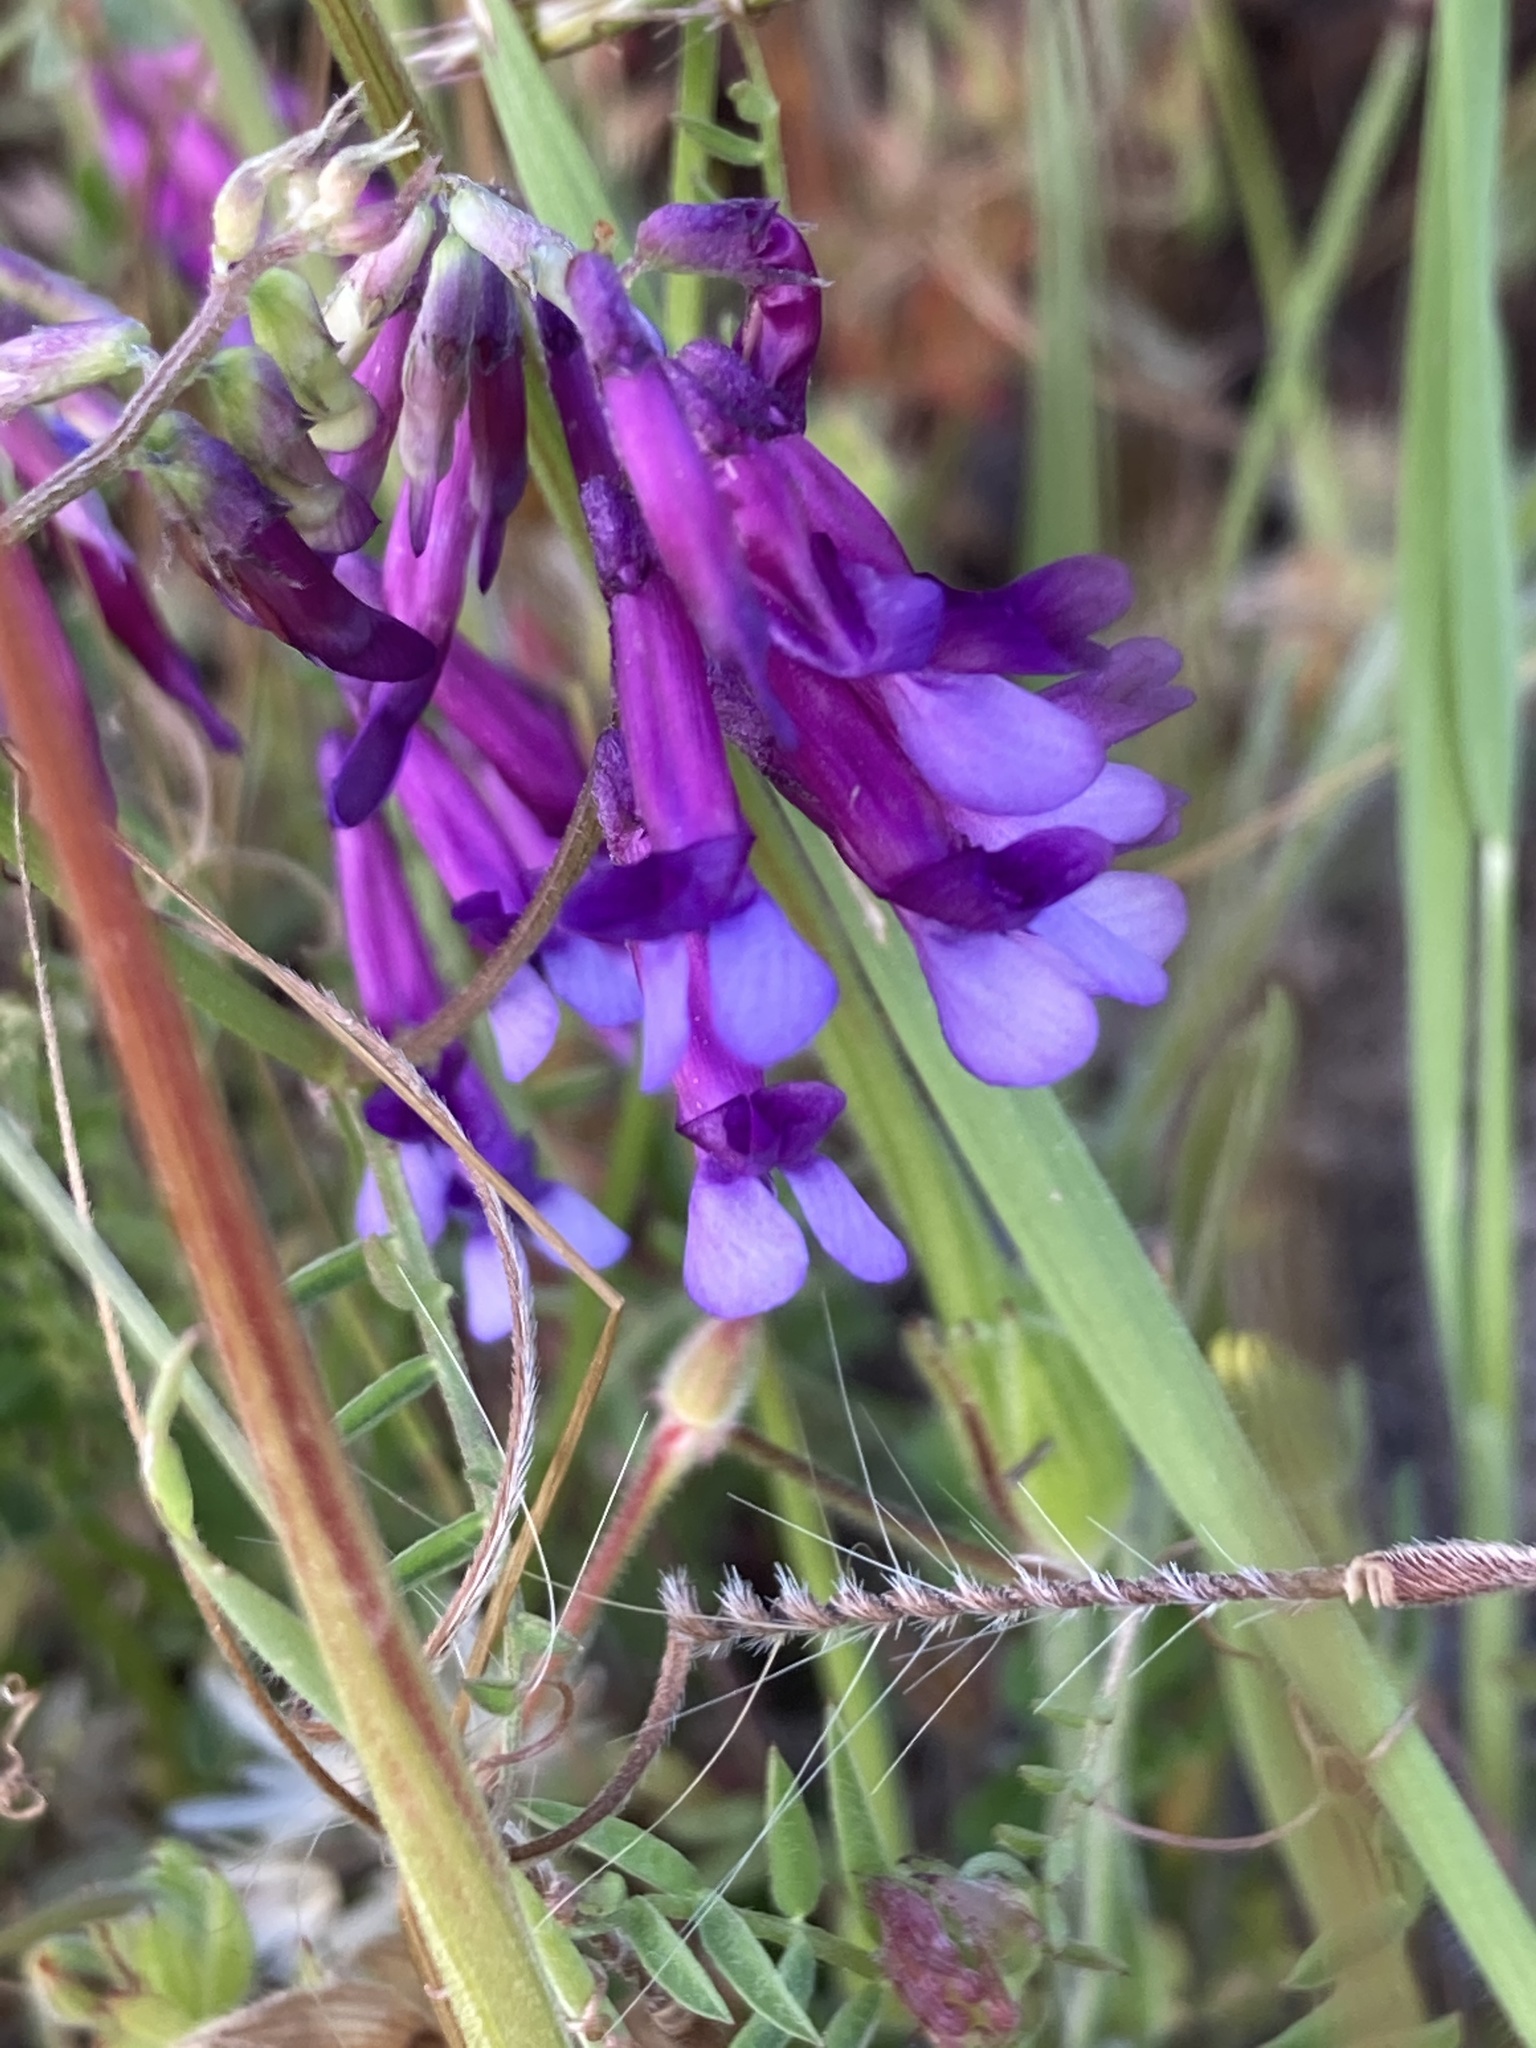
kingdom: Plantae
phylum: Tracheophyta
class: Magnoliopsida
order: Fabales
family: Fabaceae
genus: Vicia
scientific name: Vicia villosa
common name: Fodder vetch
